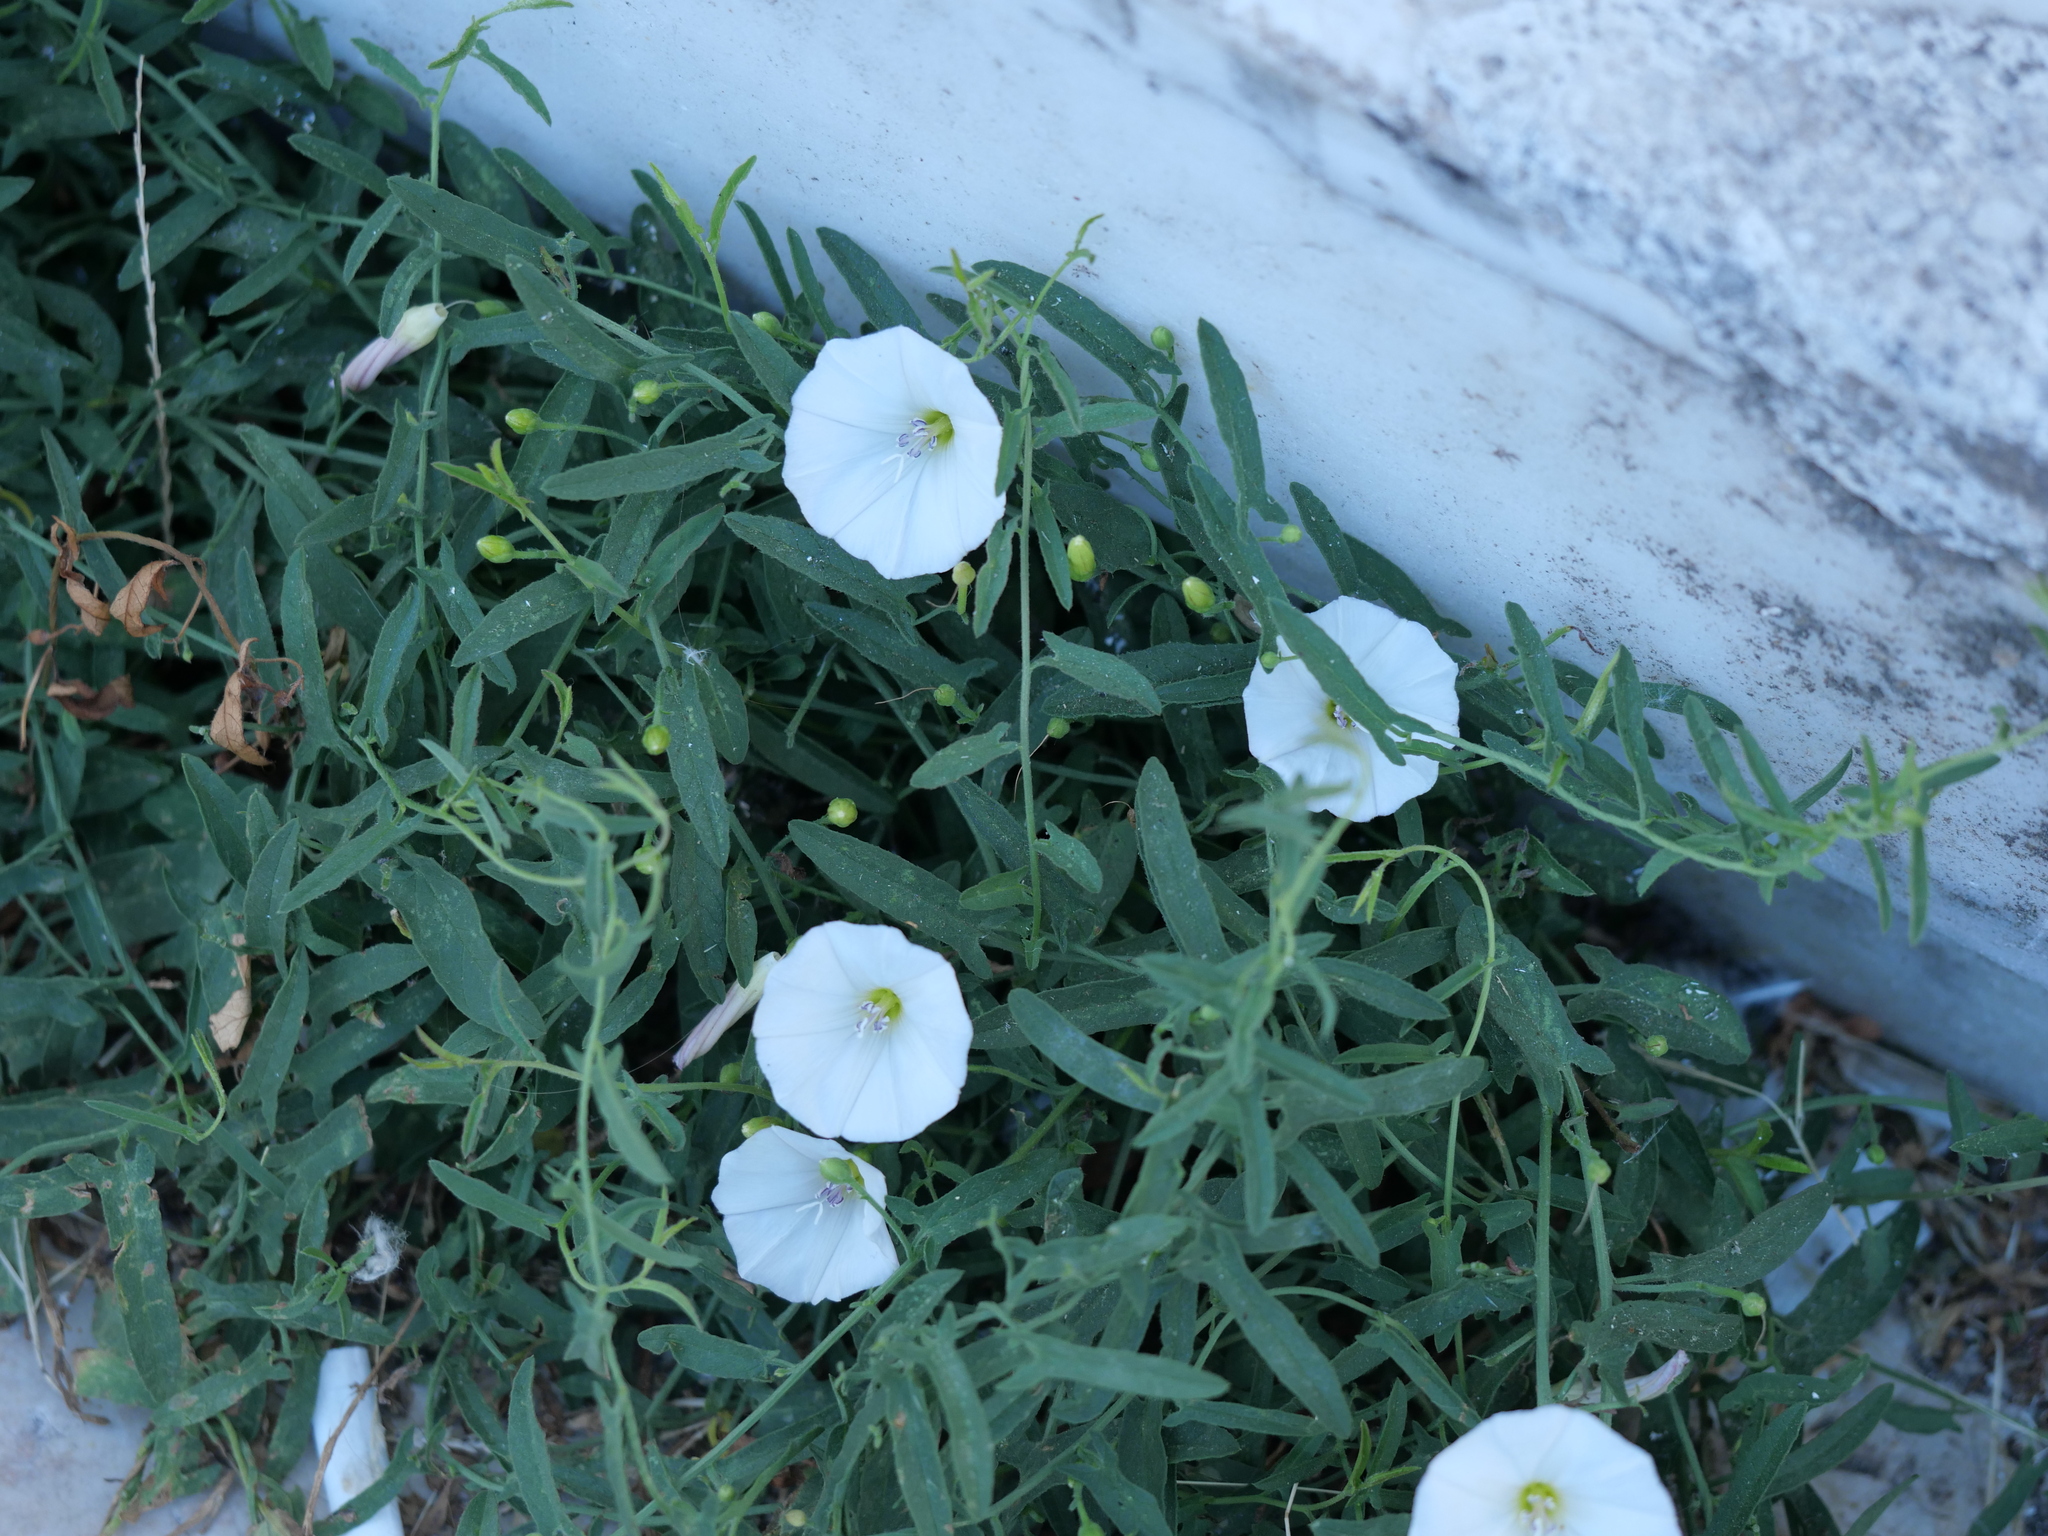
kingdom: Plantae
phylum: Tracheophyta
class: Magnoliopsida
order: Solanales
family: Convolvulaceae
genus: Convolvulus
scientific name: Convolvulus arvensis
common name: Field bindweed
